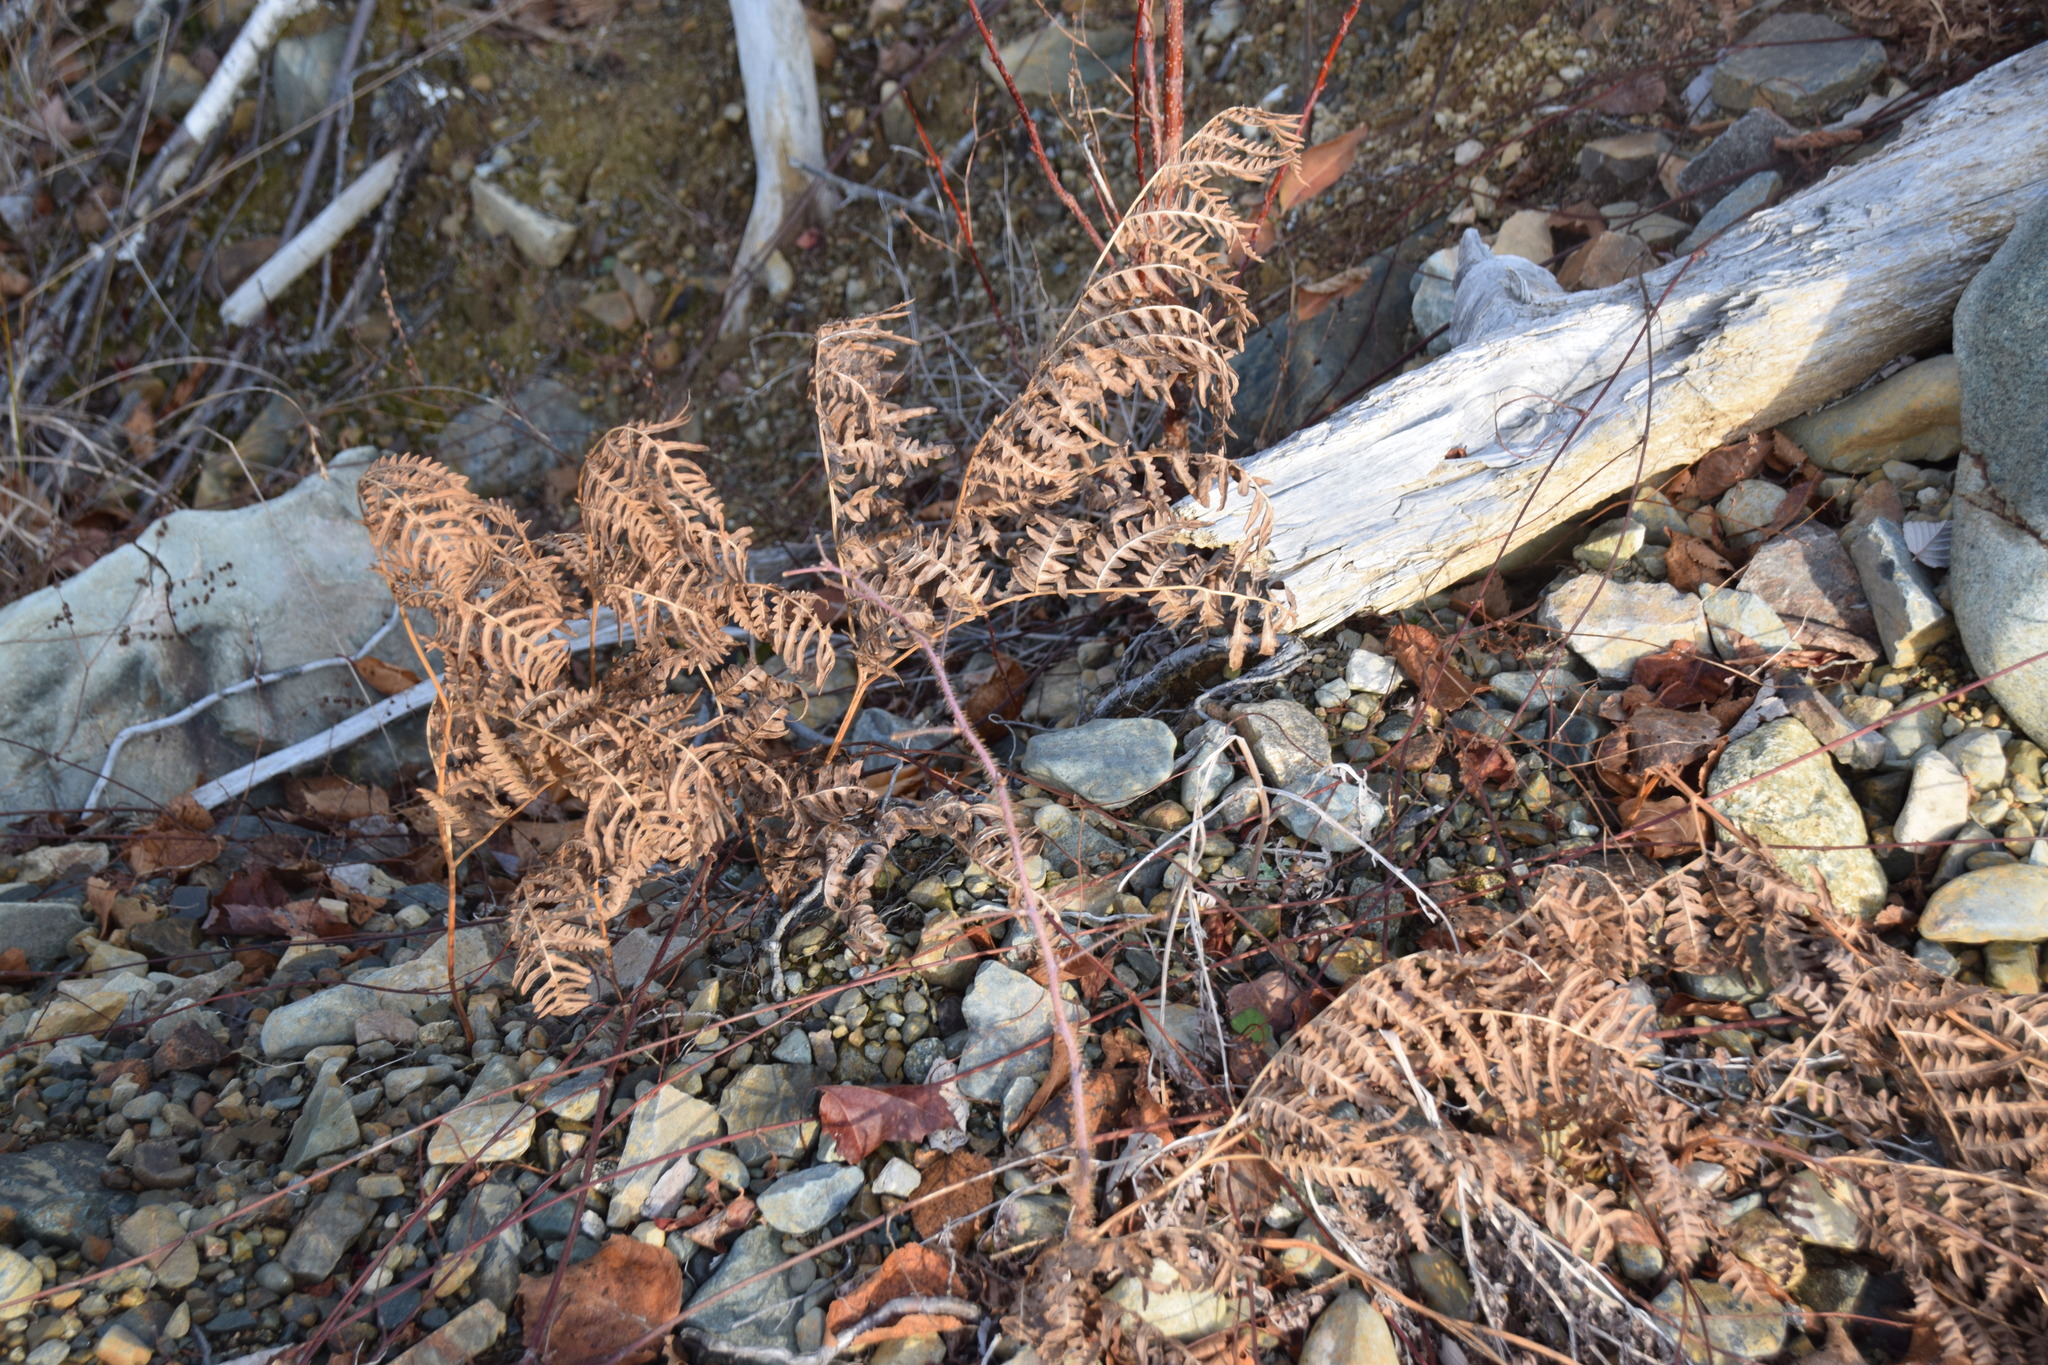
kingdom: Plantae
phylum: Tracheophyta
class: Polypodiopsida
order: Polypodiales
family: Dennstaedtiaceae
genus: Pteridium
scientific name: Pteridium aquilinum
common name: Bracken
